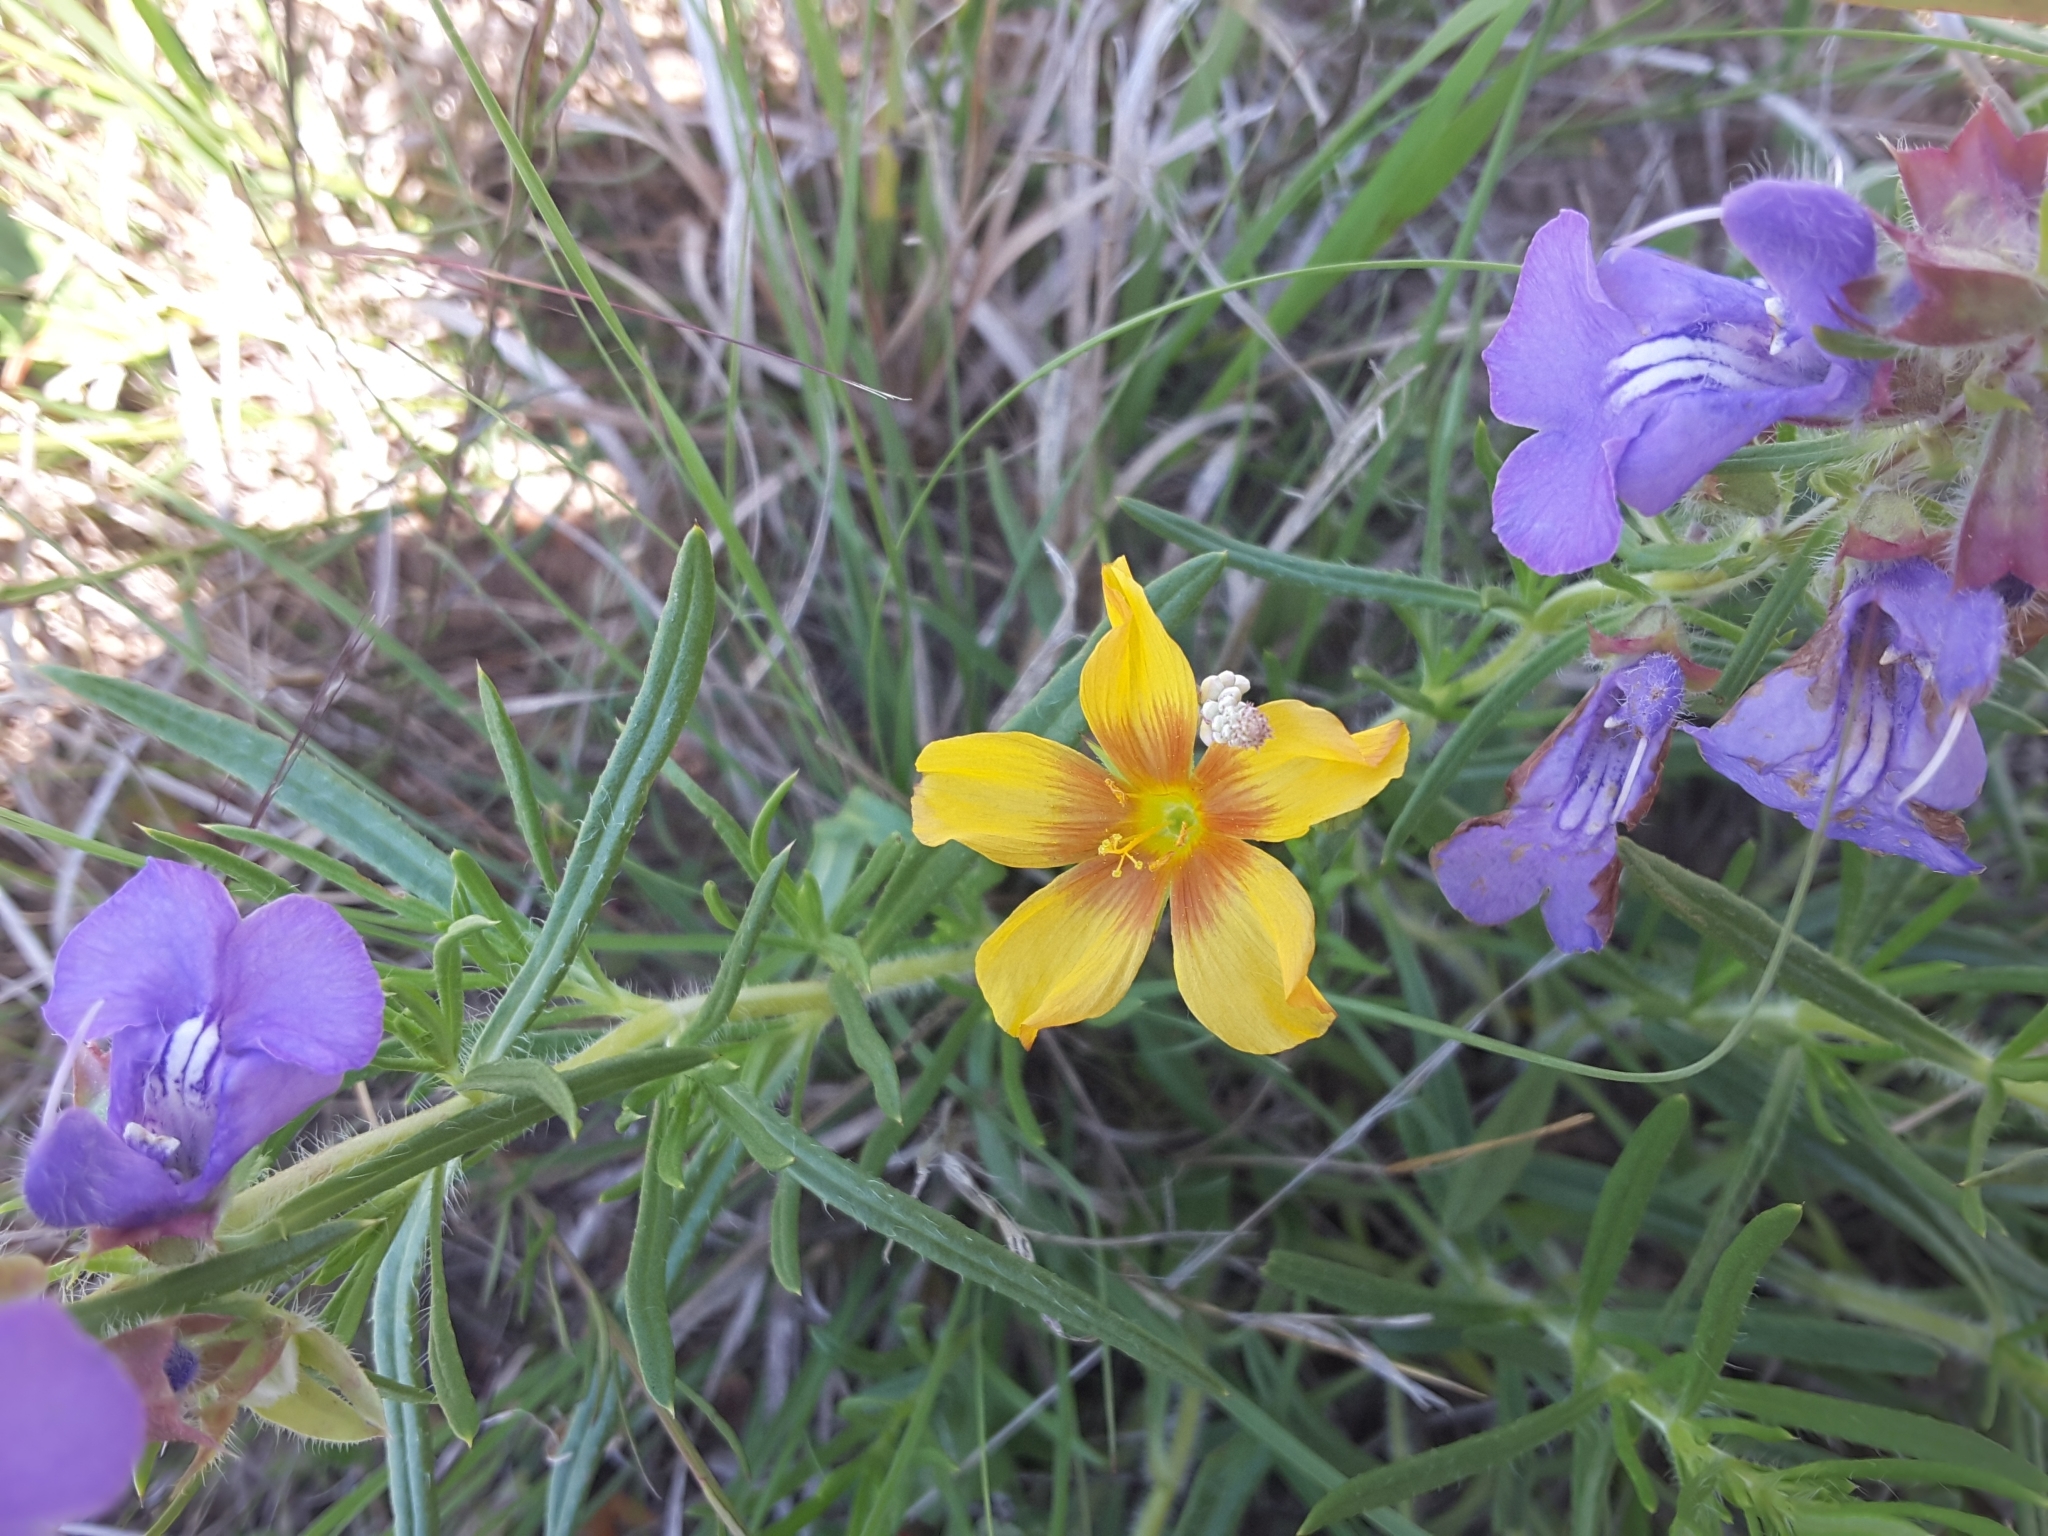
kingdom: Plantae
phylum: Tracheophyta
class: Magnoliopsida
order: Malpighiales
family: Linaceae
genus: Linum
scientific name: Linum rigidum
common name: Stiff-stem flax
